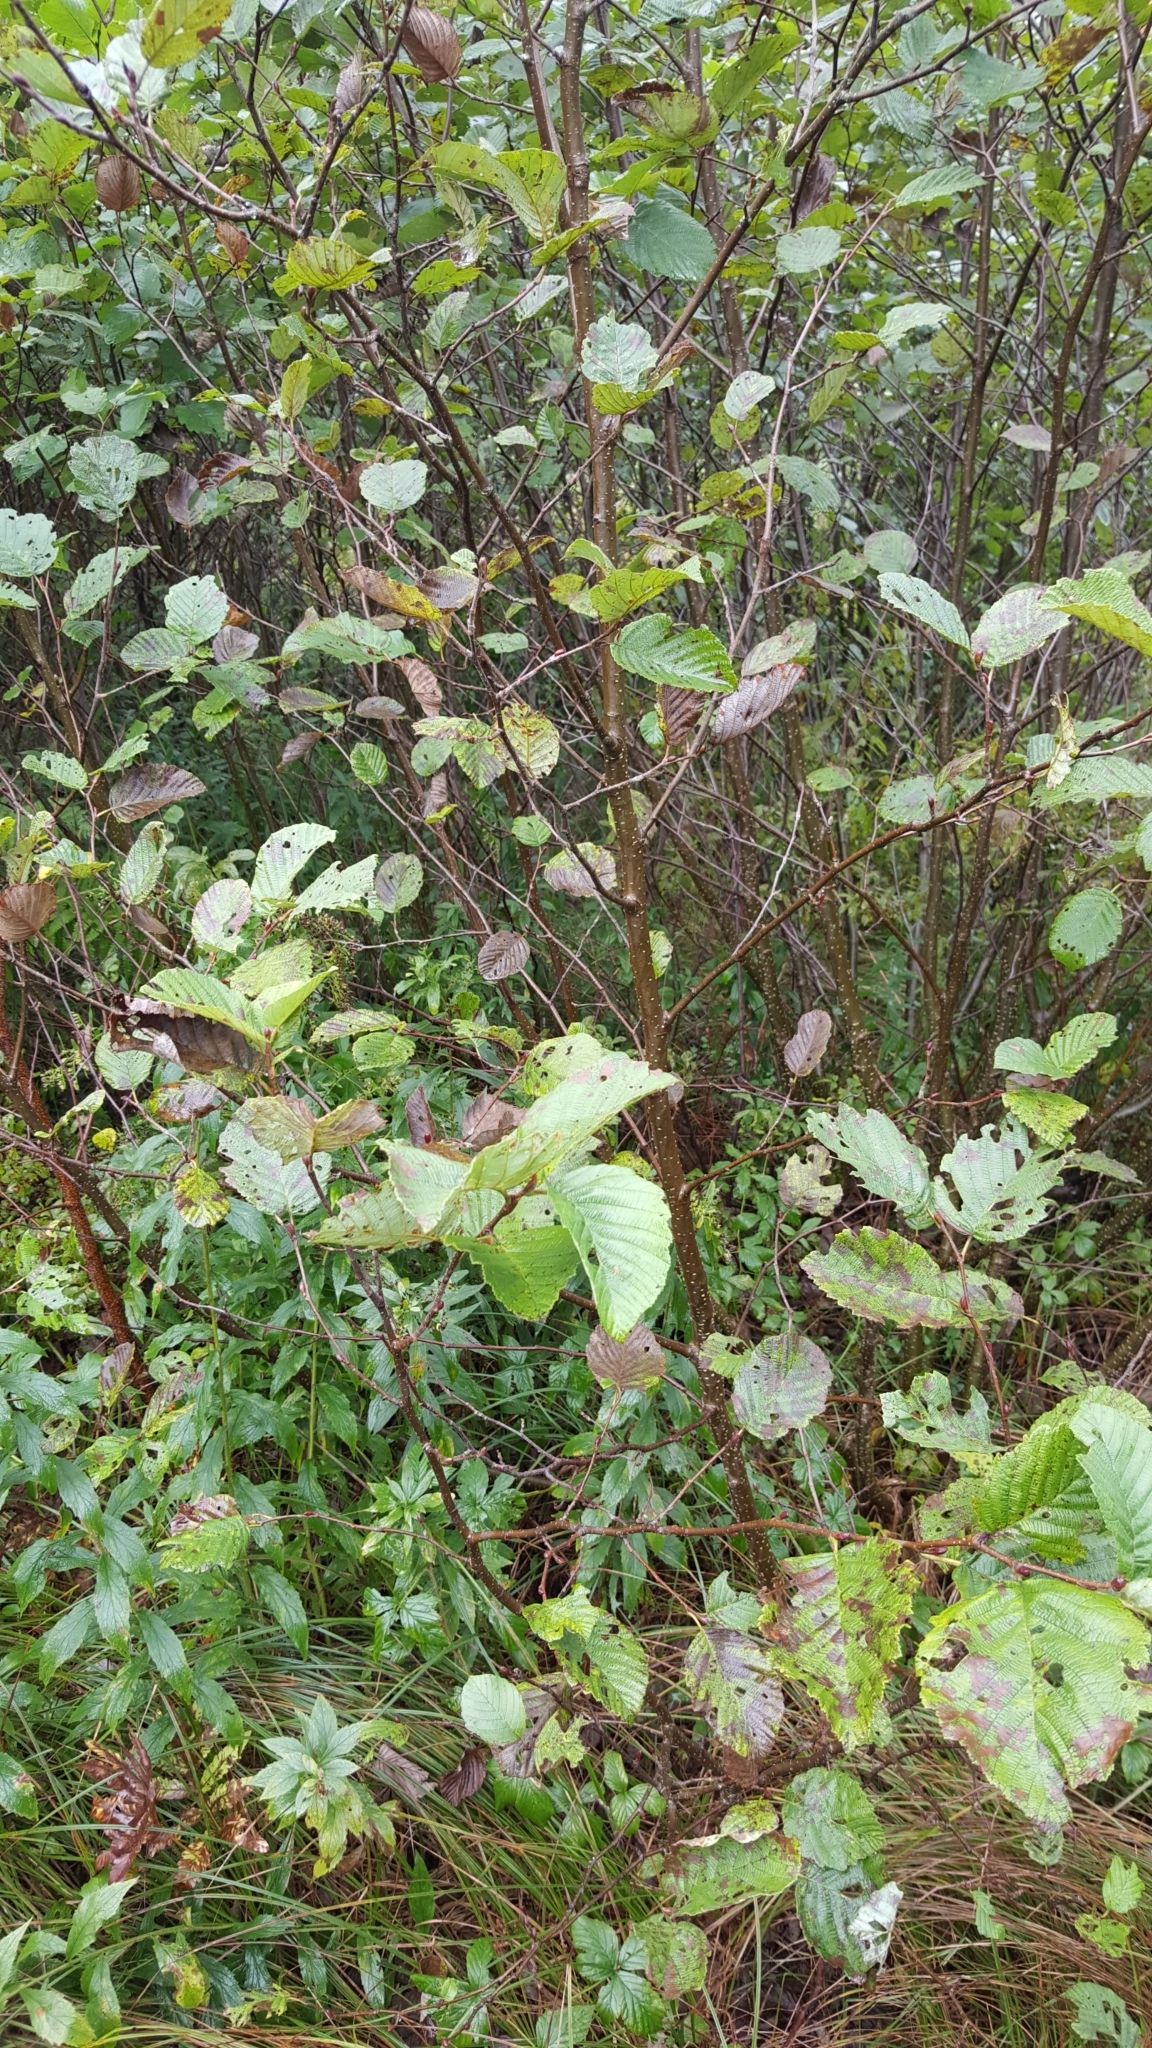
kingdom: Plantae
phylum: Tracheophyta
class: Magnoliopsida
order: Fagales
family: Betulaceae
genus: Alnus
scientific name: Alnus incana
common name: Grey alder
